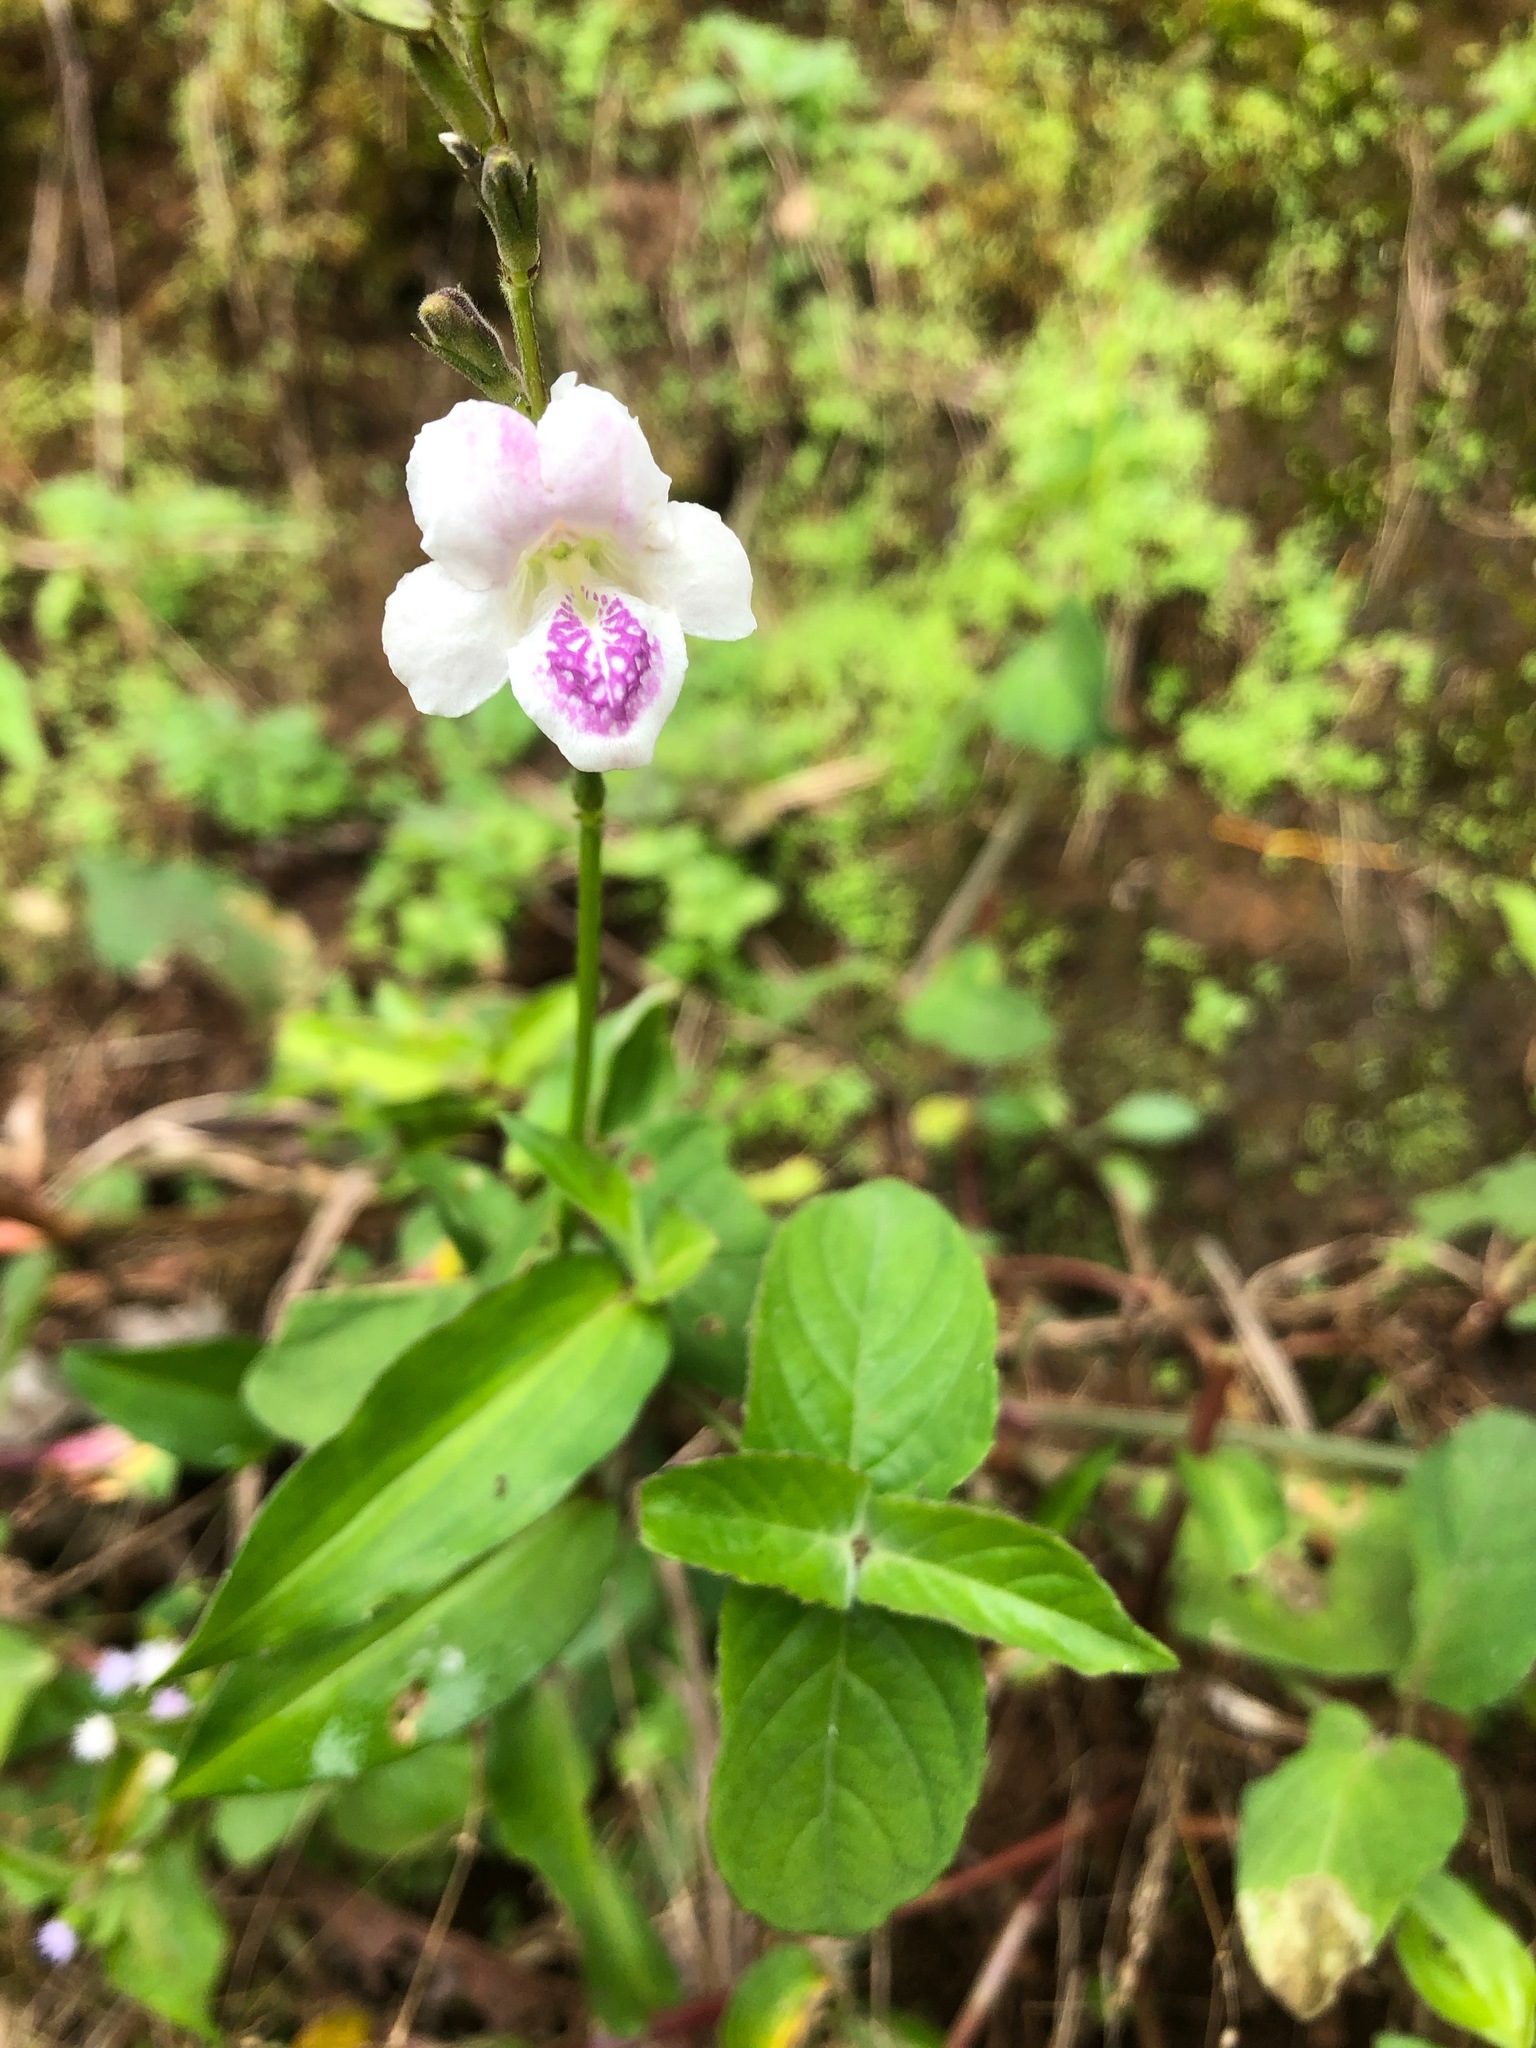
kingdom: Plantae
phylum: Tracheophyta
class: Magnoliopsida
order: Lamiales
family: Acanthaceae
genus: Asystasia
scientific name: Asystasia intrusa
